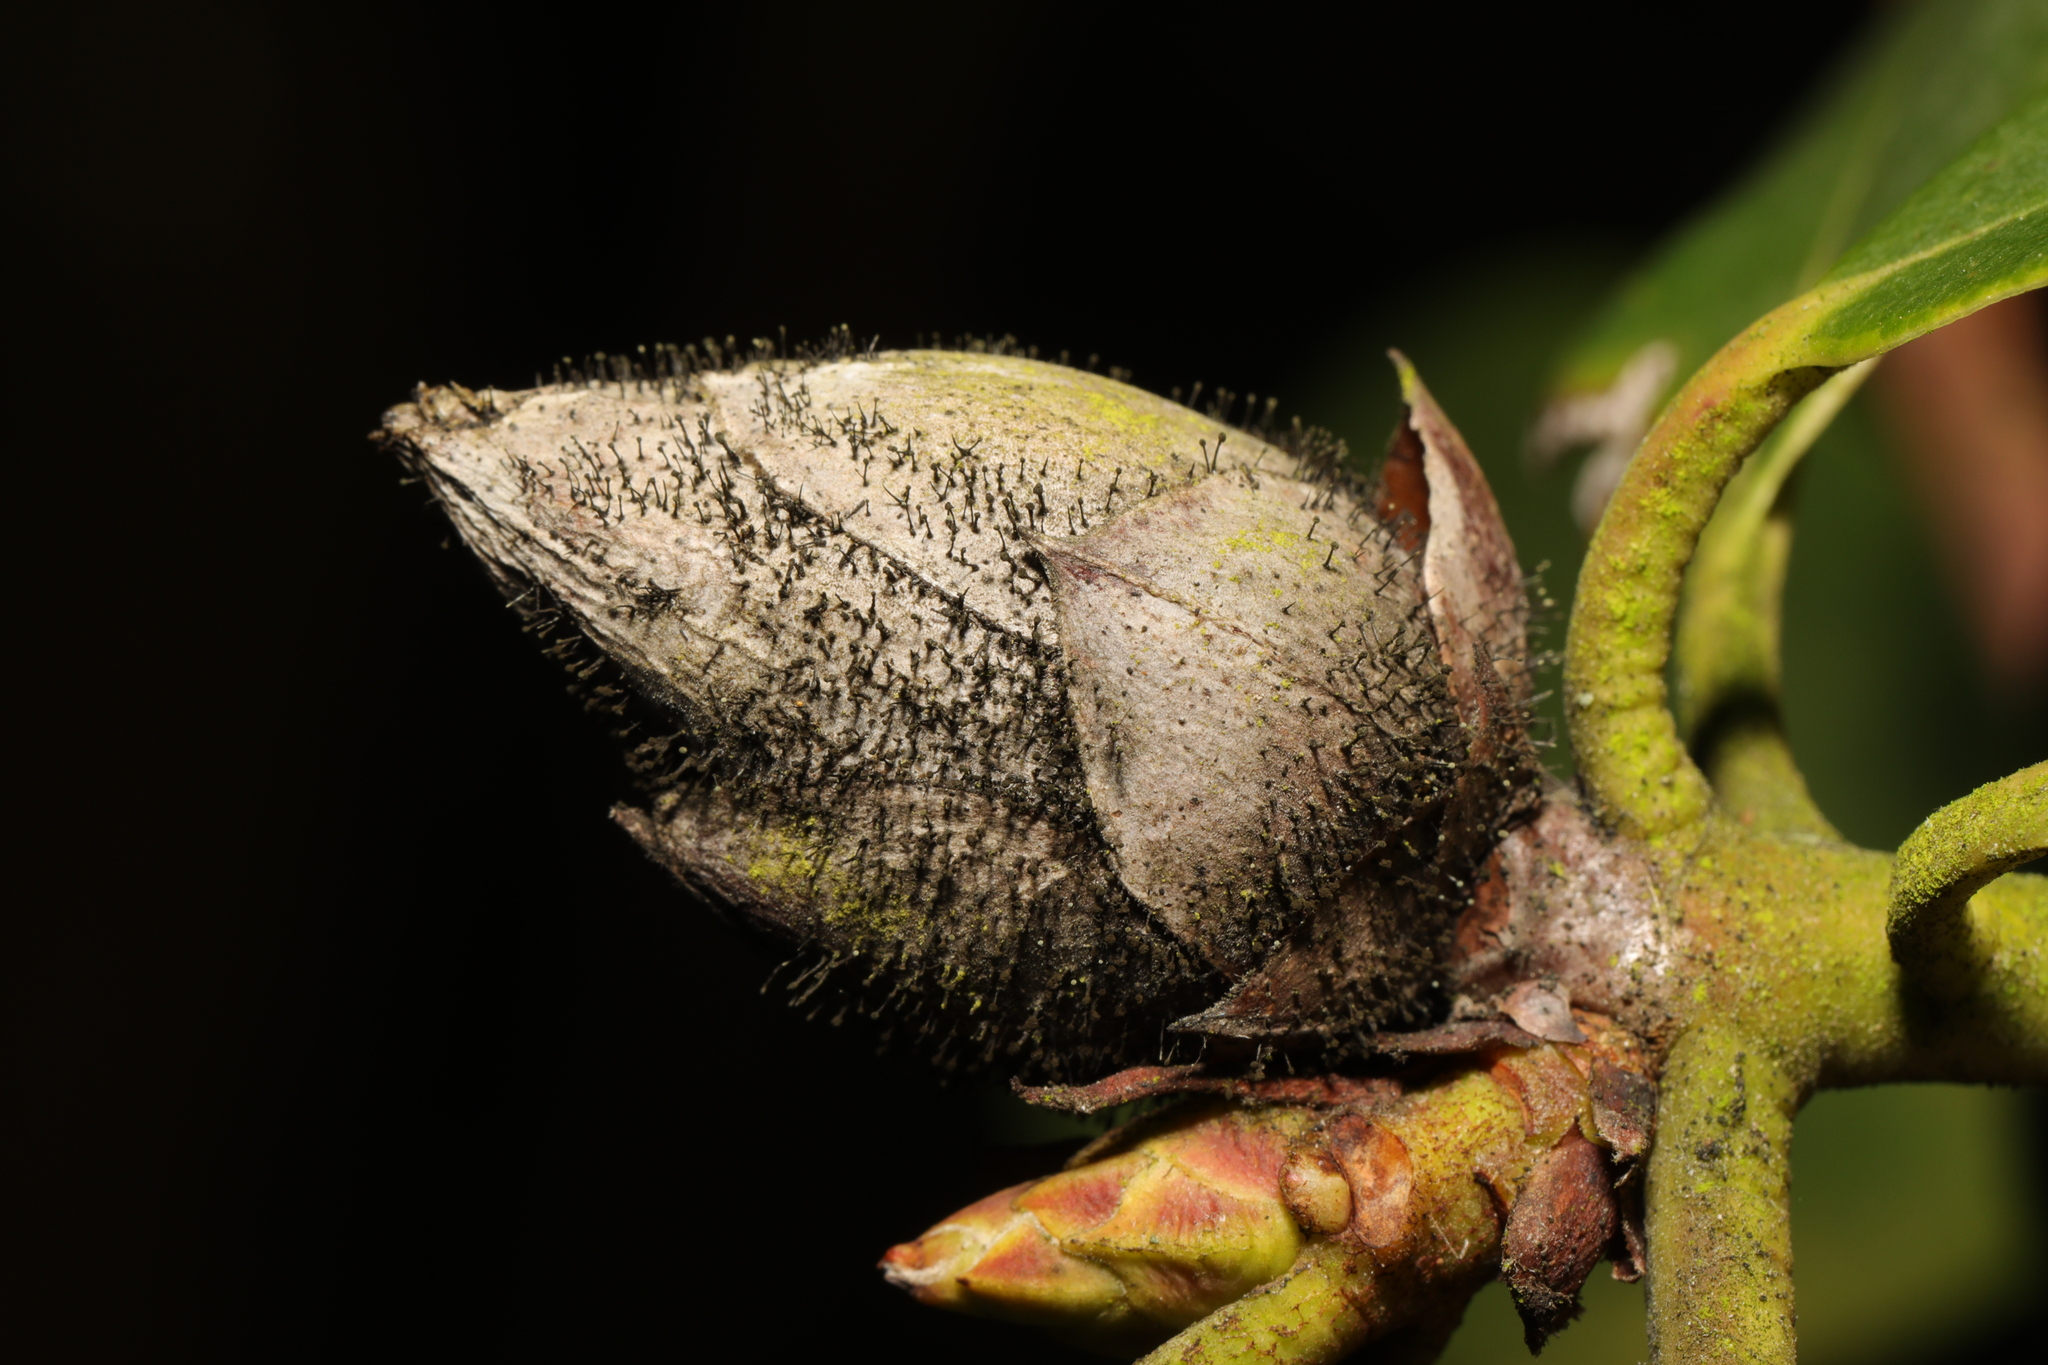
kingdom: Fungi
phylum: Ascomycota
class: Dothideomycetes
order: Pleosporales
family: Melanommataceae
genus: Seifertia
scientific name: Seifertia azaleae
